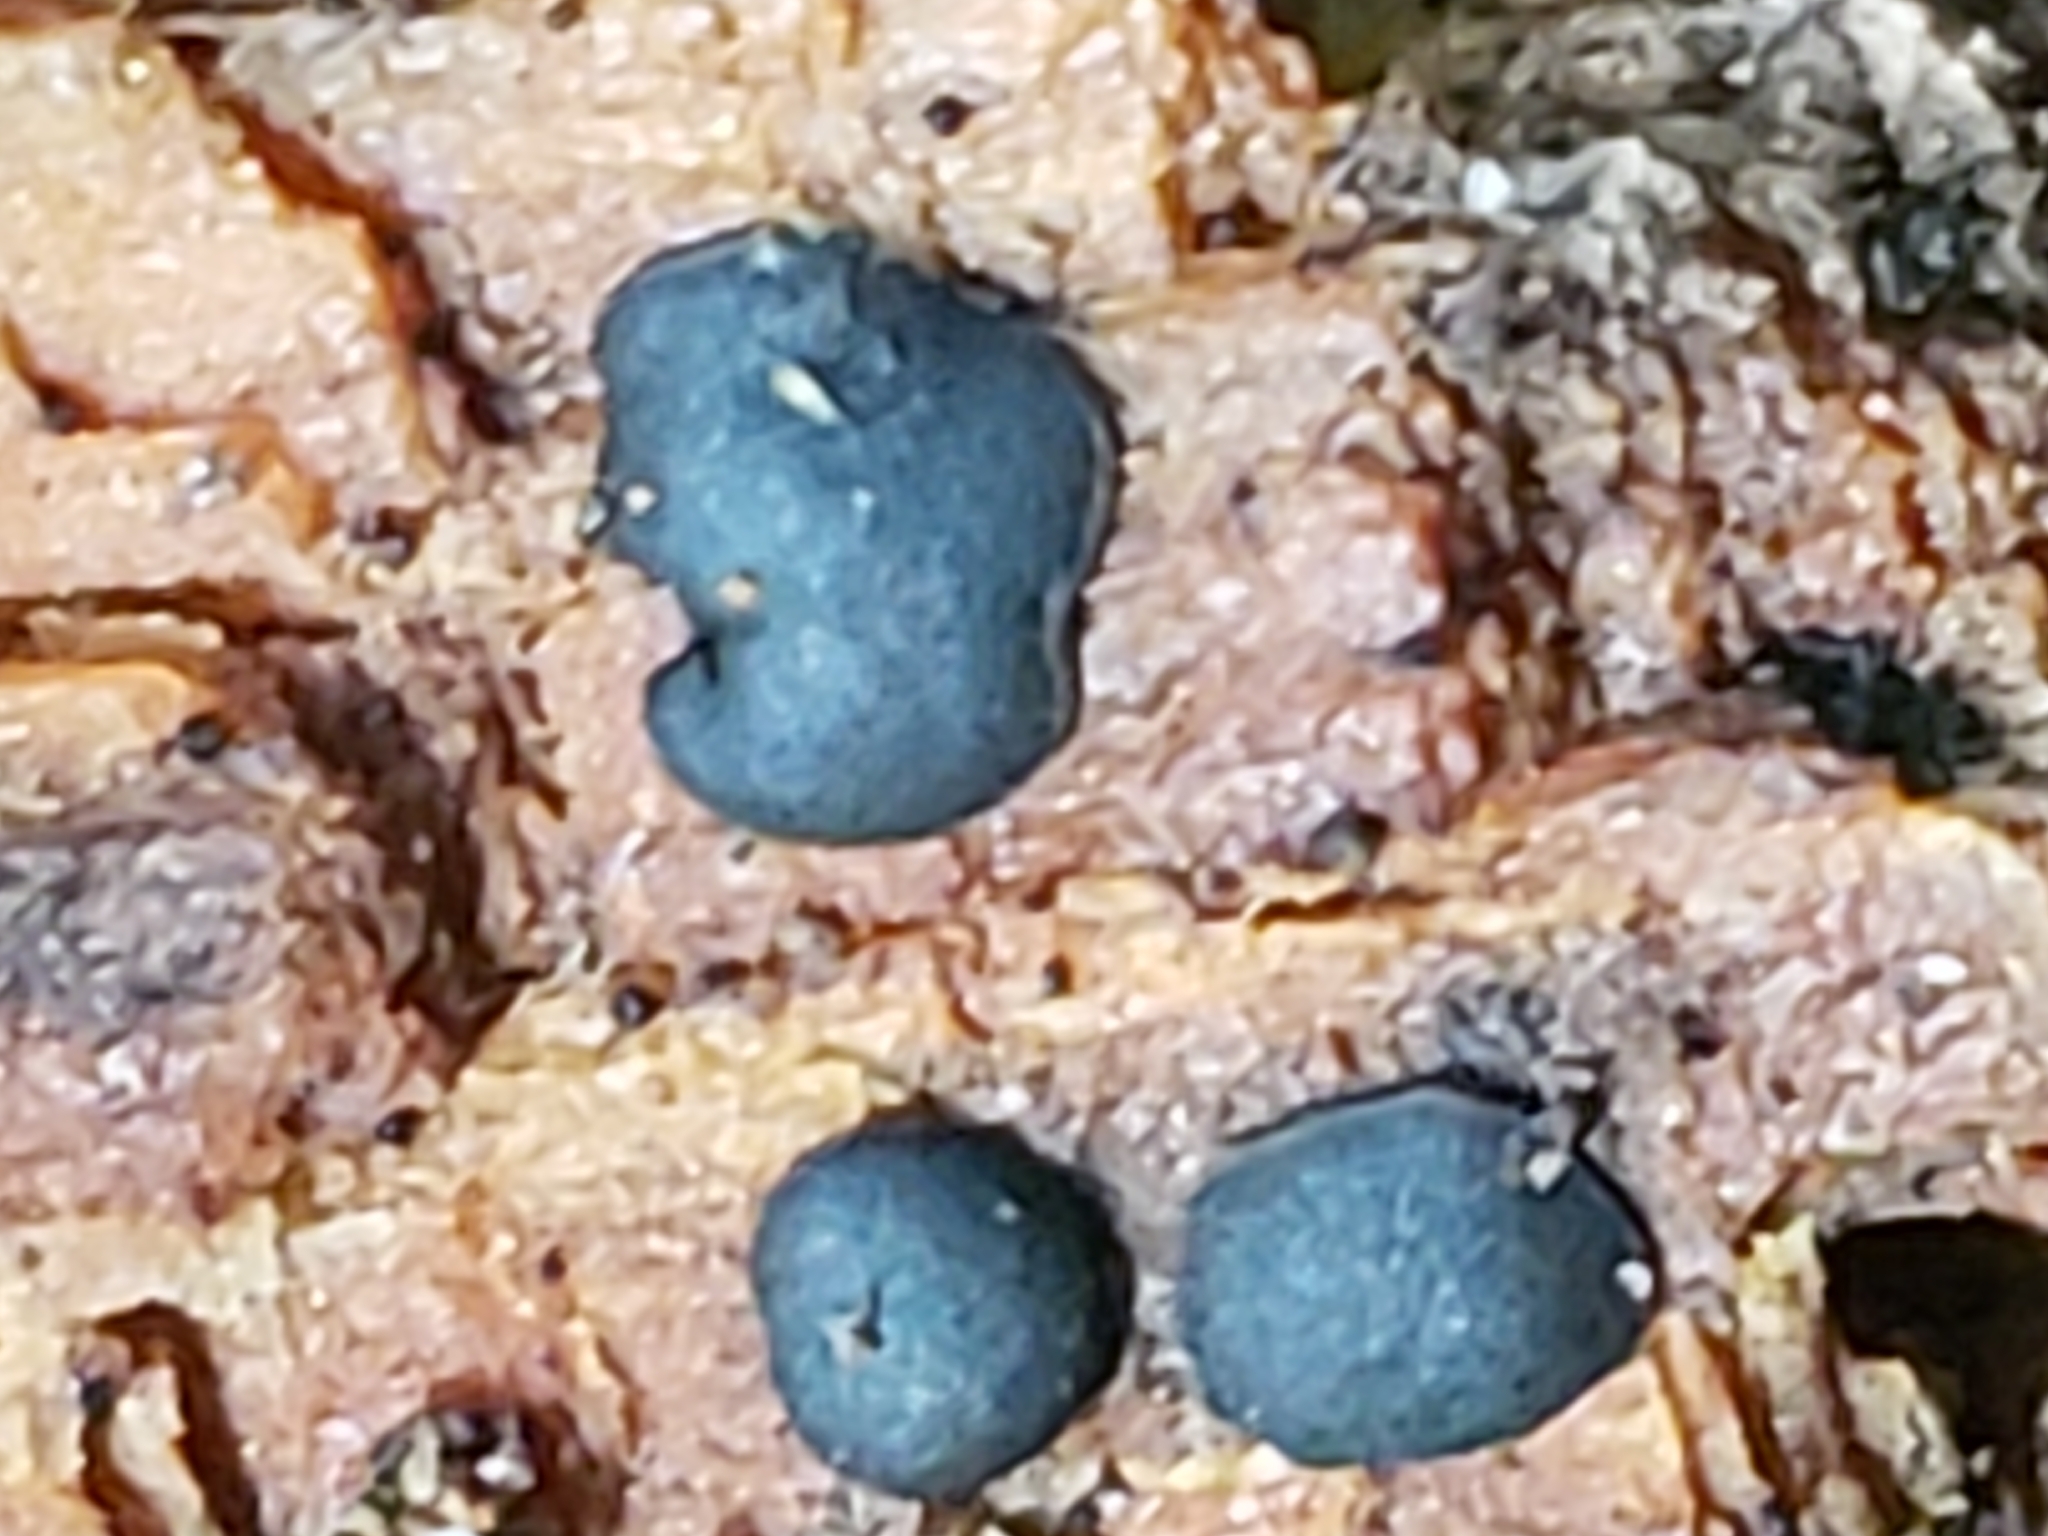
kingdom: Fungi
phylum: Ascomycota
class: Dothideomycetes
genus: Catinella
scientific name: Catinella olivacea
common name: Olive salver
